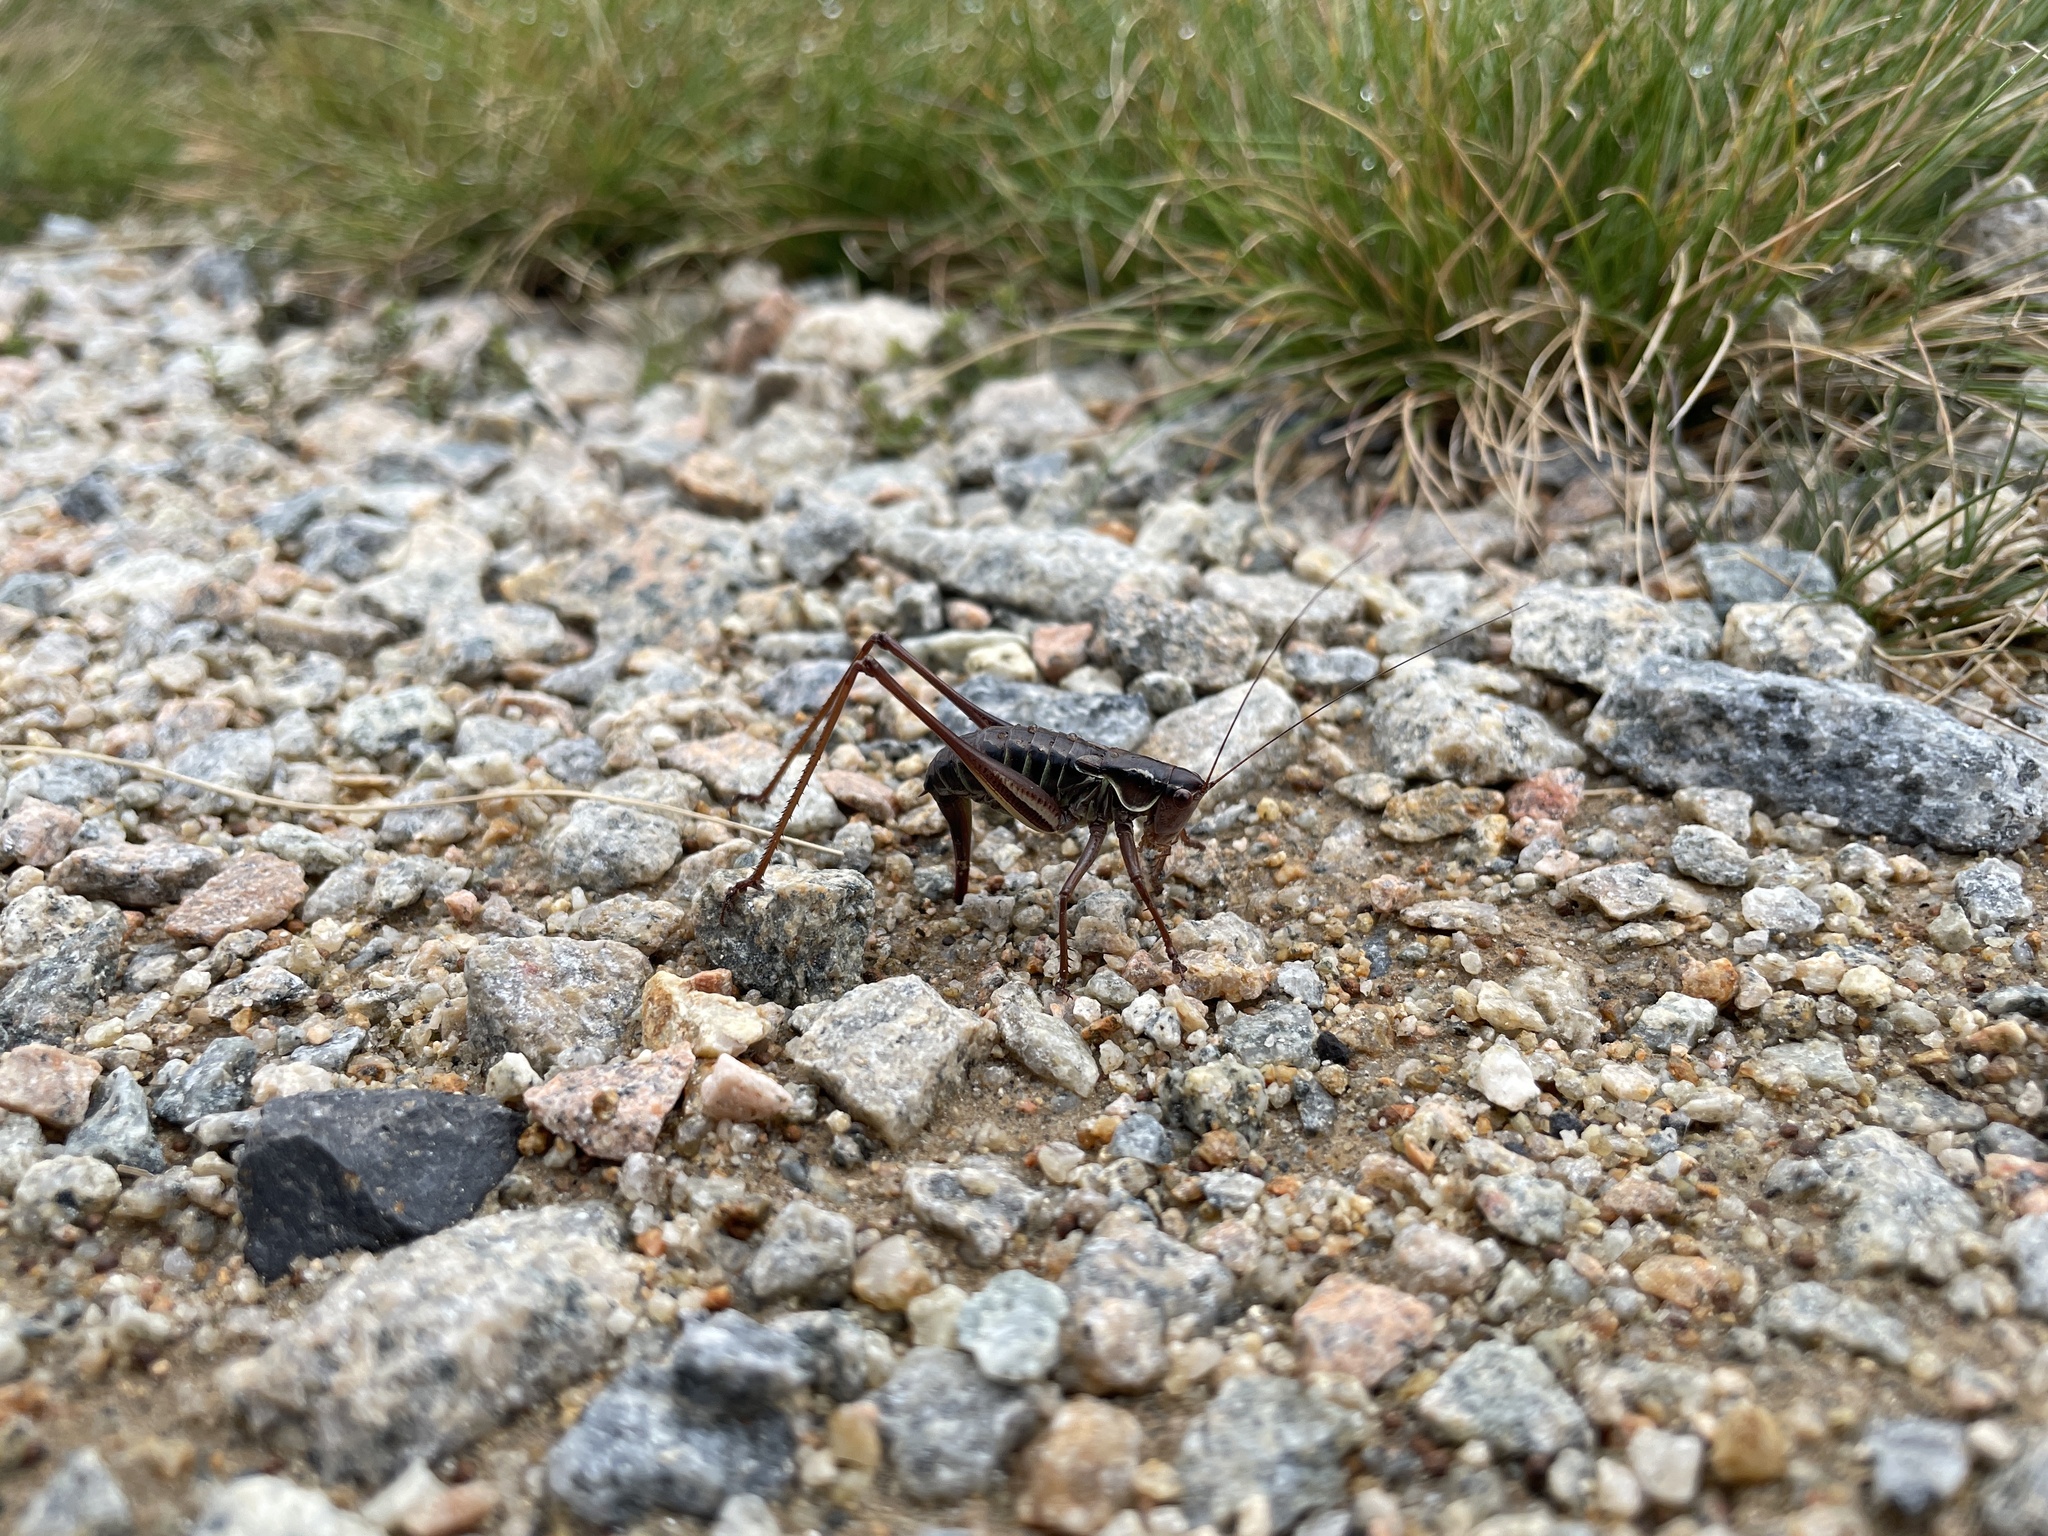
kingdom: Animalia
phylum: Arthropoda
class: Insecta
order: Orthoptera
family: Tettigoniidae
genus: Austrodectes
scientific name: Austrodectes monticolus
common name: Alpine katydid
